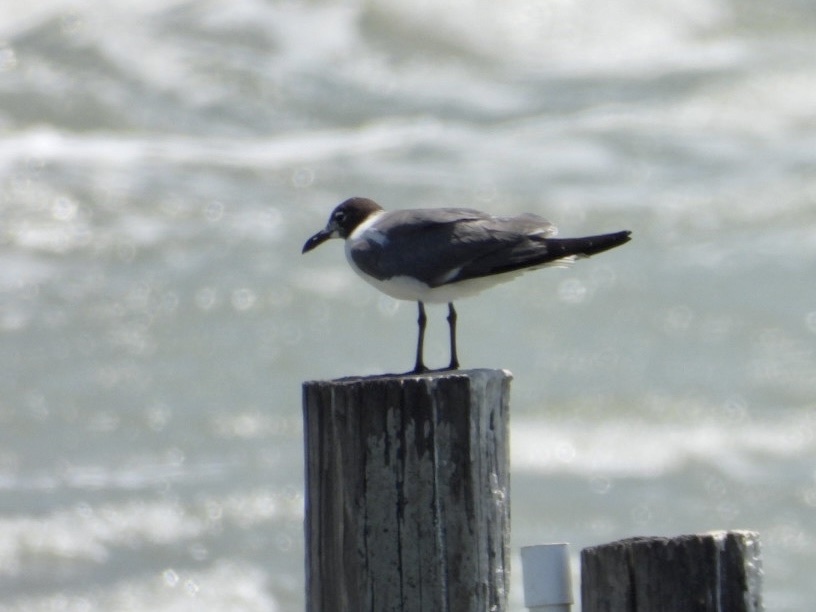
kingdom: Animalia
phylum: Chordata
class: Aves
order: Charadriiformes
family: Laridae
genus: Leucophaeus
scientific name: Leucophaeus atricilla
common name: Laughing gull
